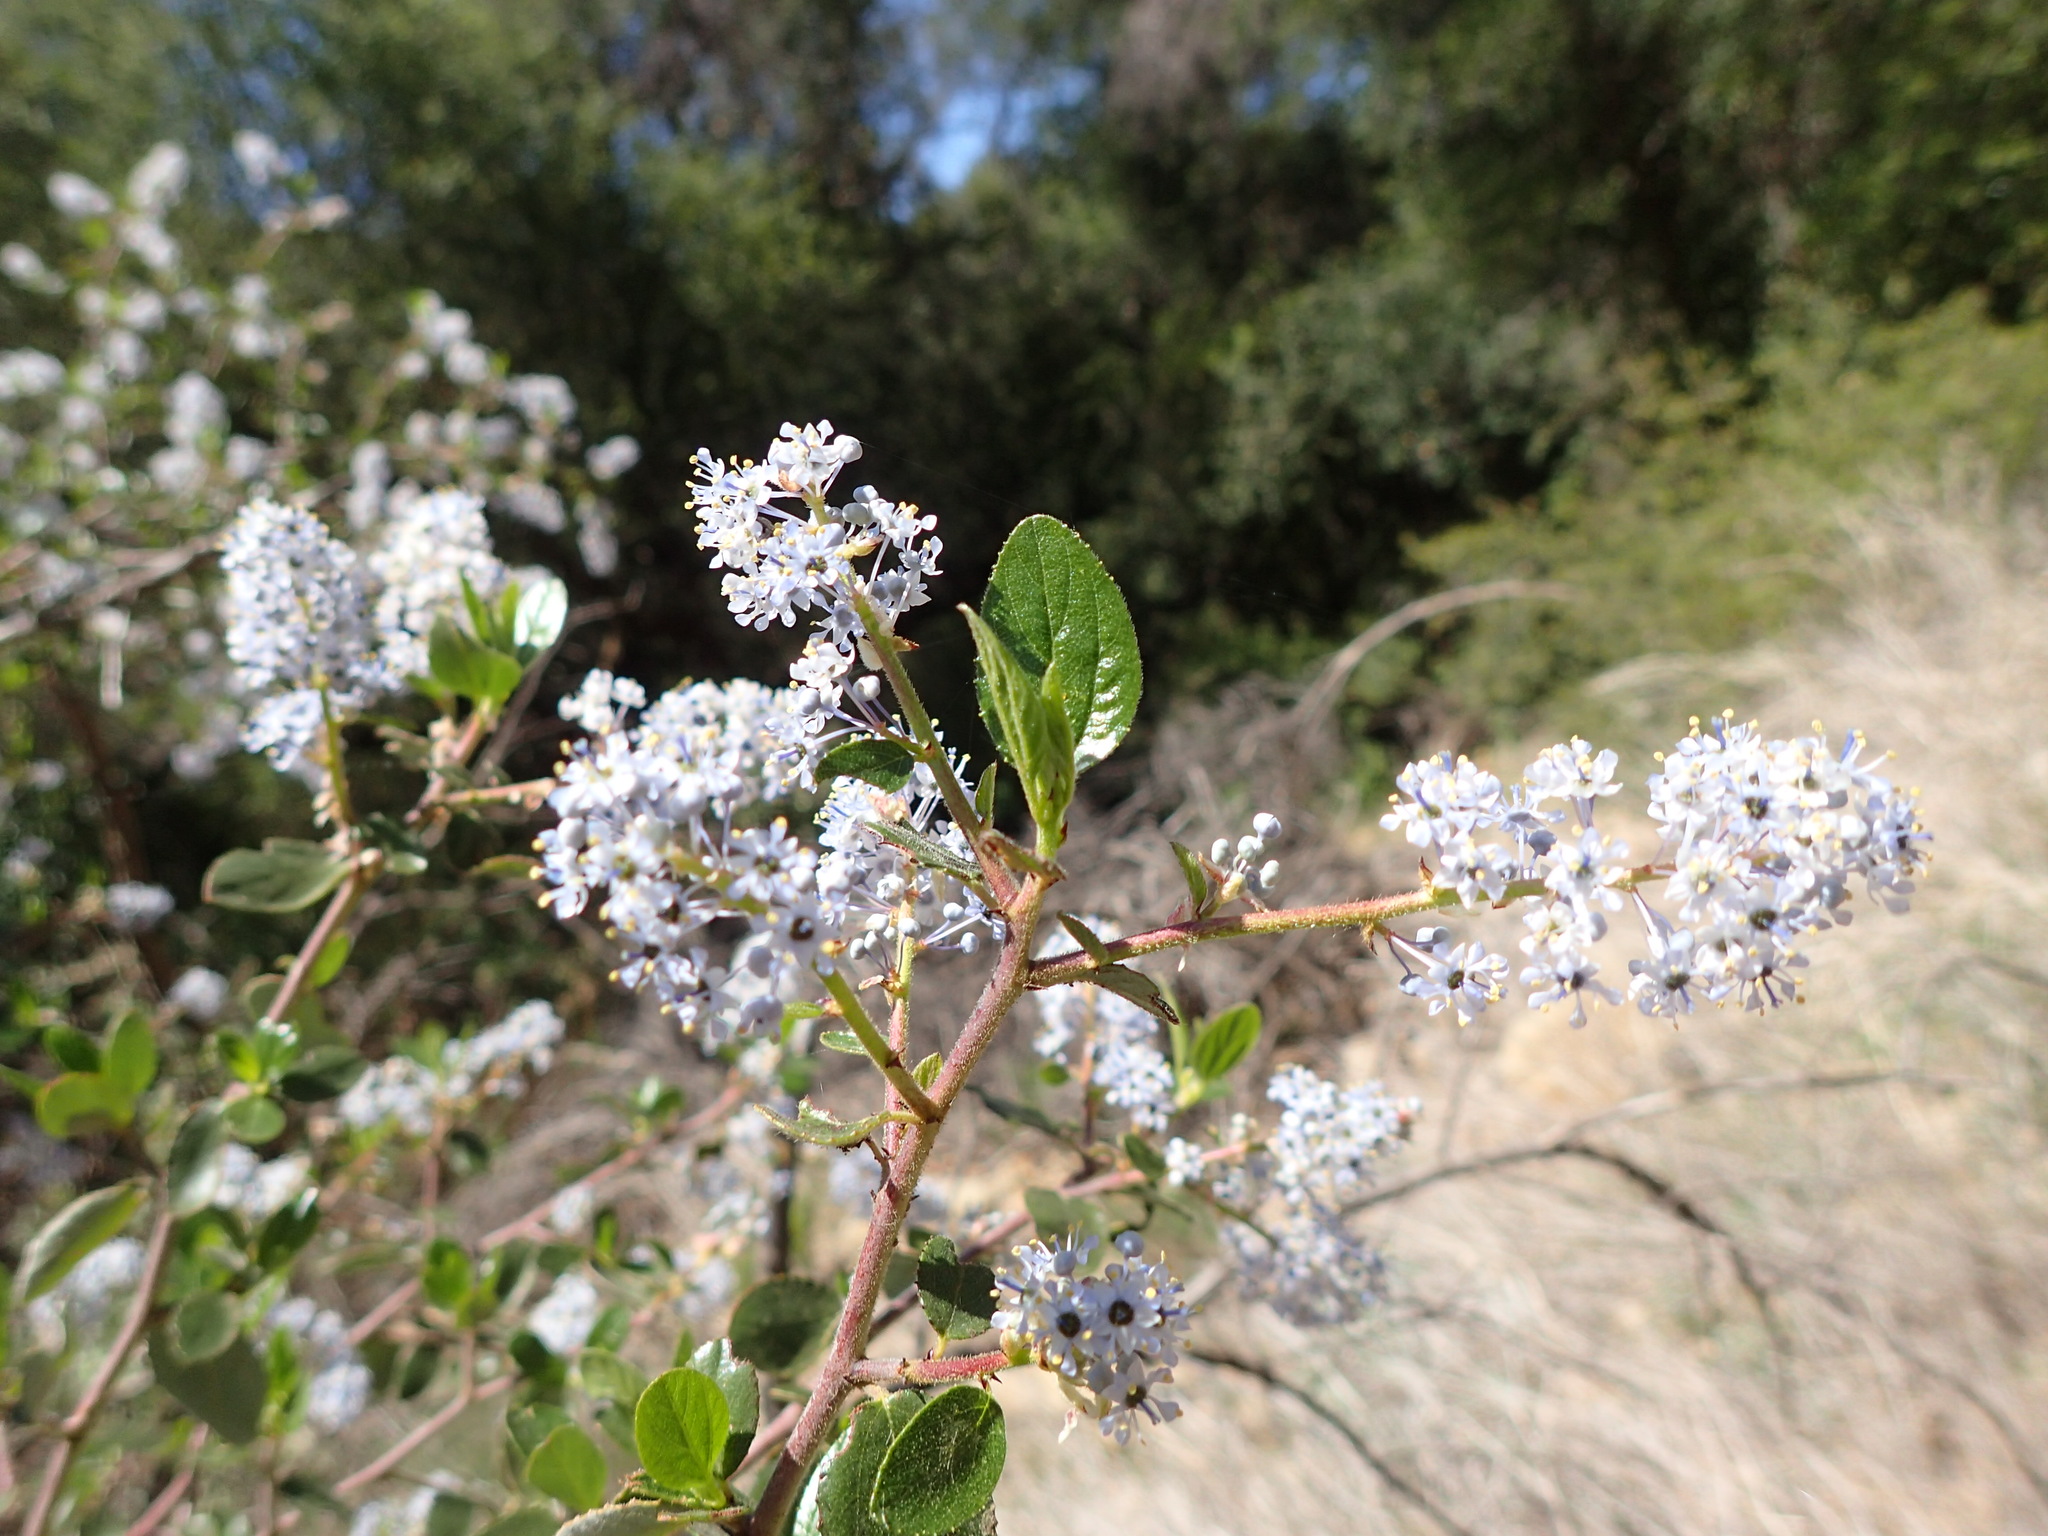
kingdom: Plantae
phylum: Tracheophyta
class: Magnoliopsida
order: Rosales
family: Rhamnaceae
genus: Ceanothus
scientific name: Ceanothus oliganthus
